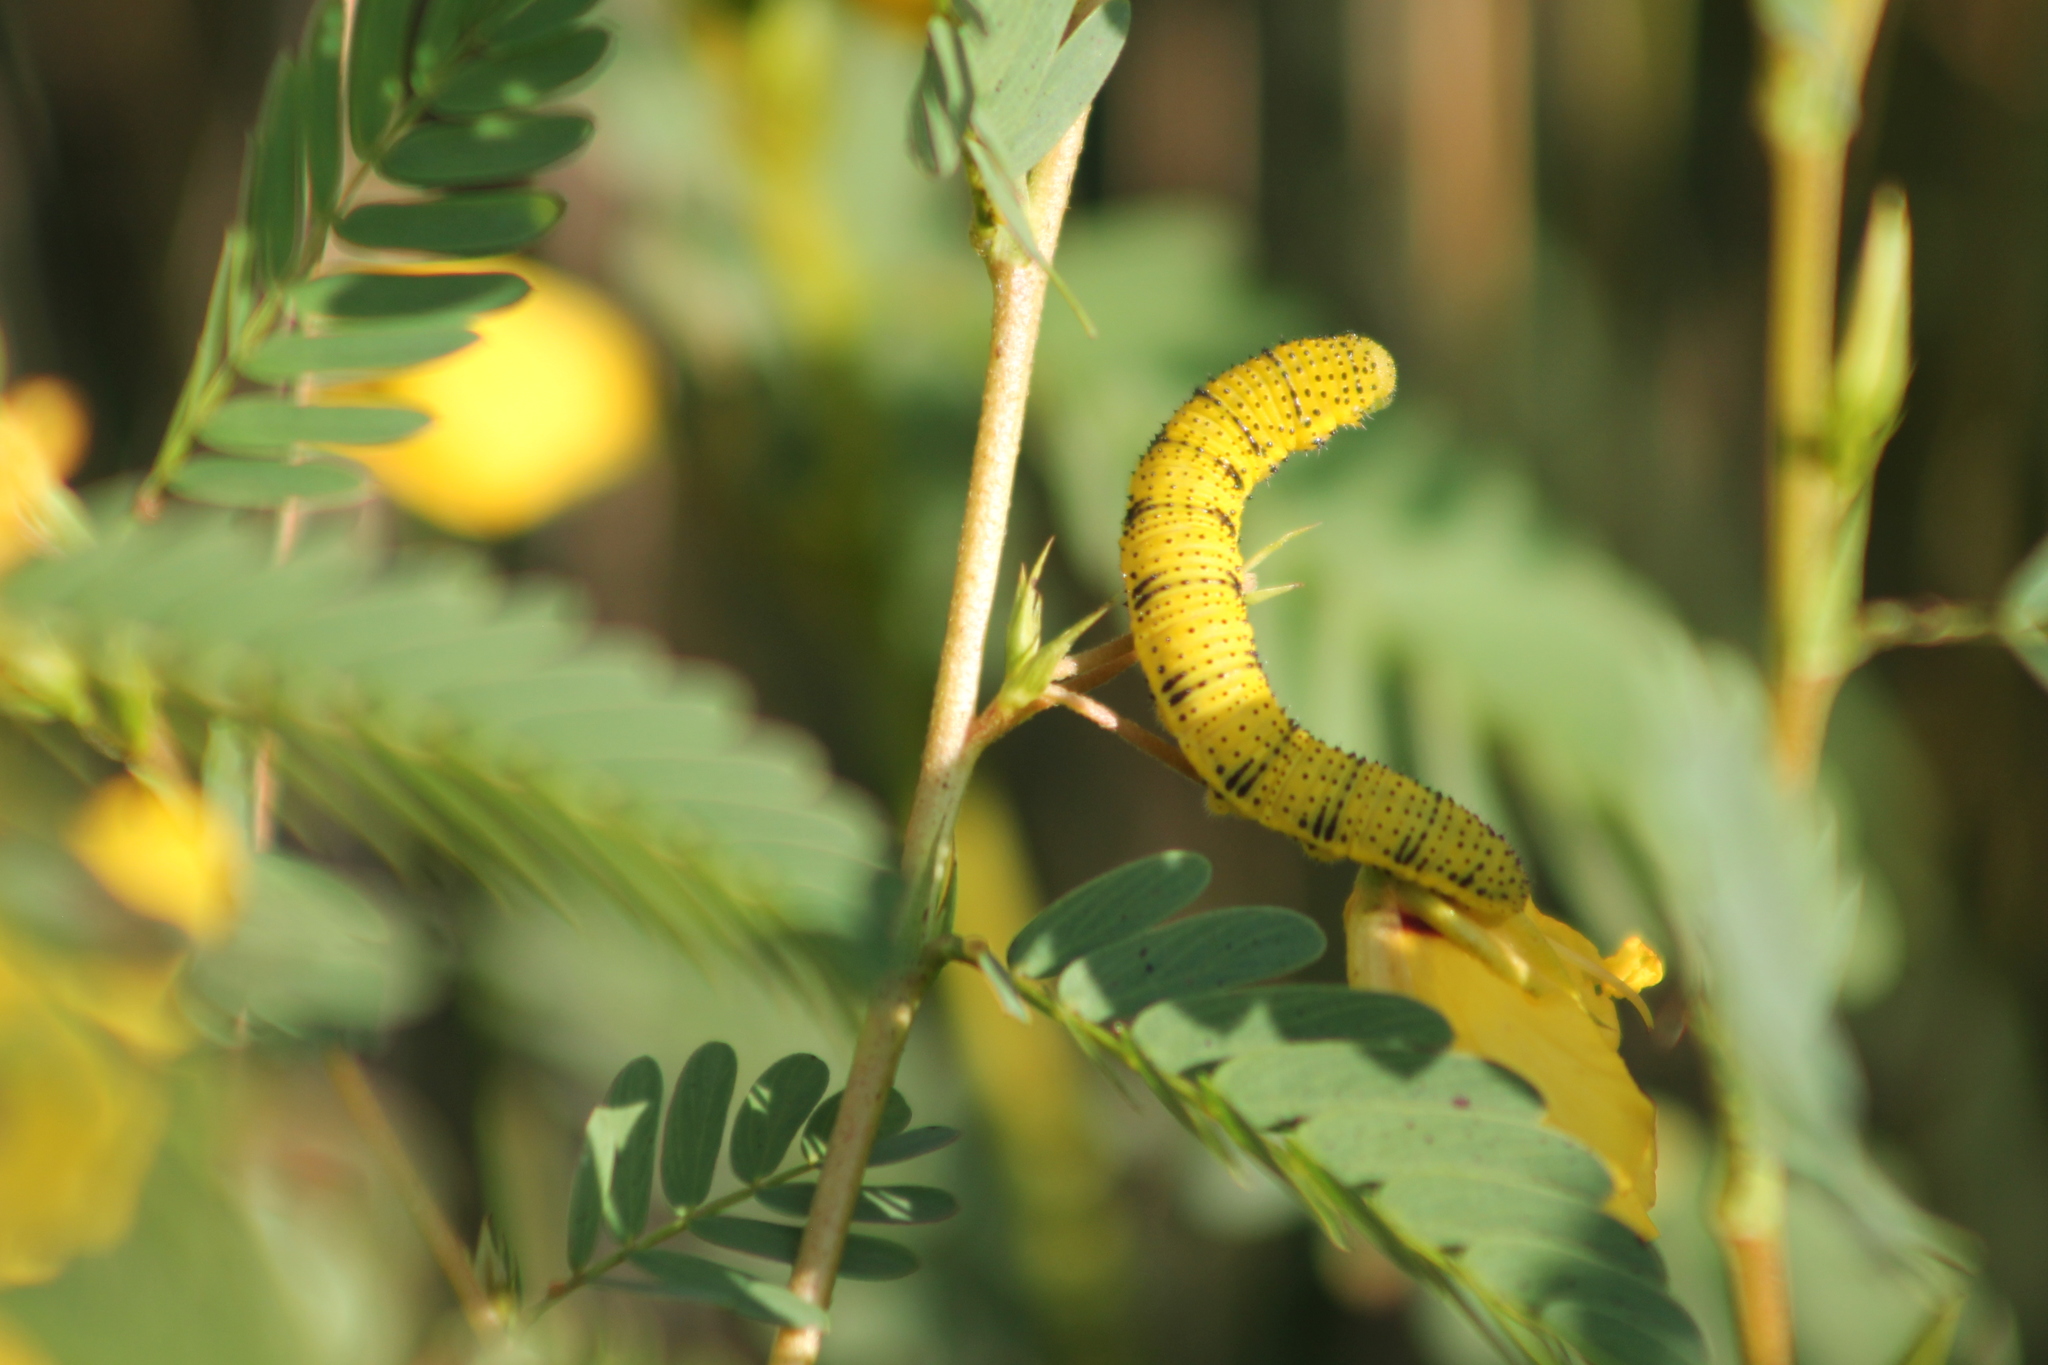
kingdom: Animalia
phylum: Arthropoda
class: Insecta
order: Lepidoptera
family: Pieridae
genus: Phoebis
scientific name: Phoebis sennae
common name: Cloudless sulphur
